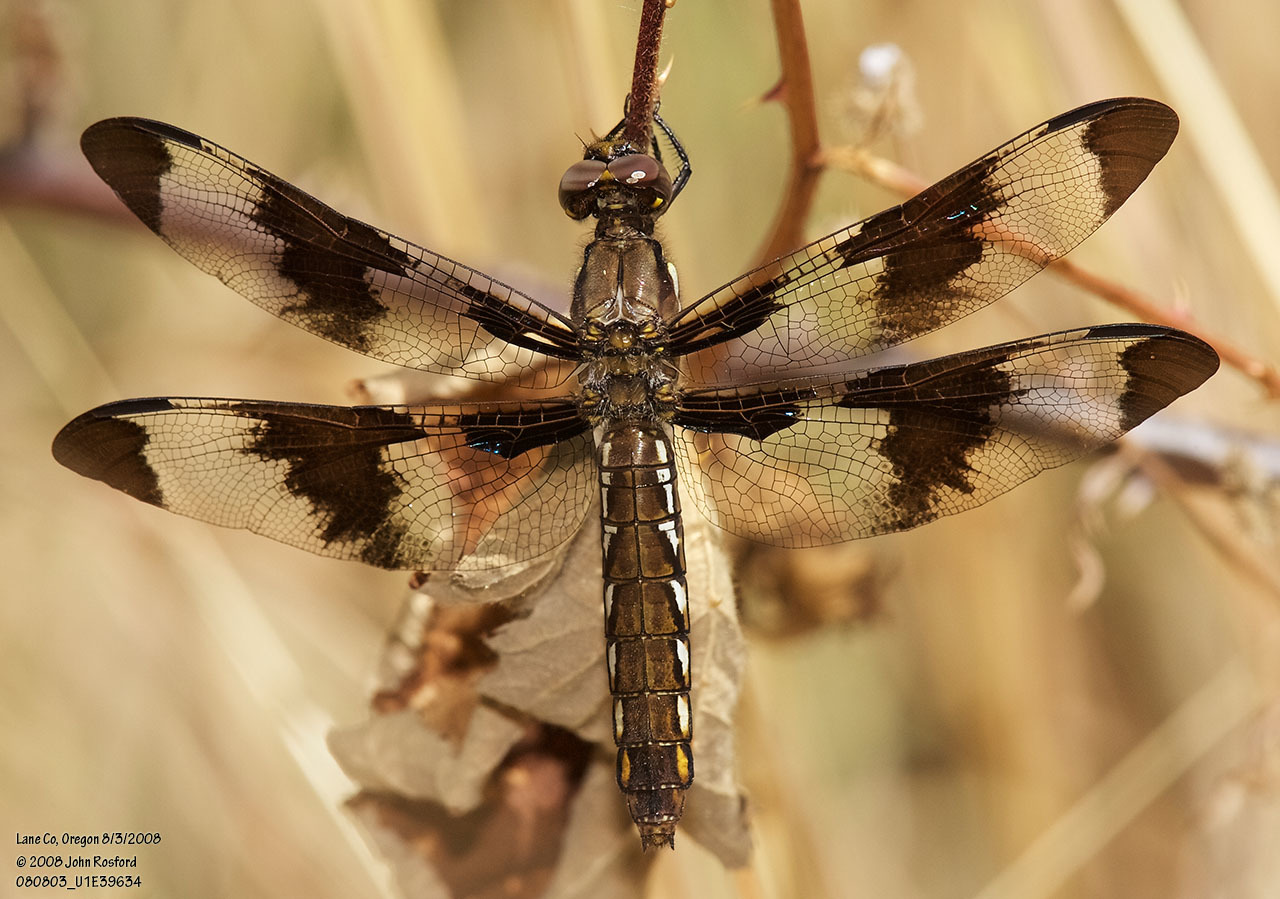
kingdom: Animalia
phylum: Arthropoda
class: Insecta
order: Odonata
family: Libellulidae
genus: Plathemis
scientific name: Plathemis lydia
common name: Common whitetail
